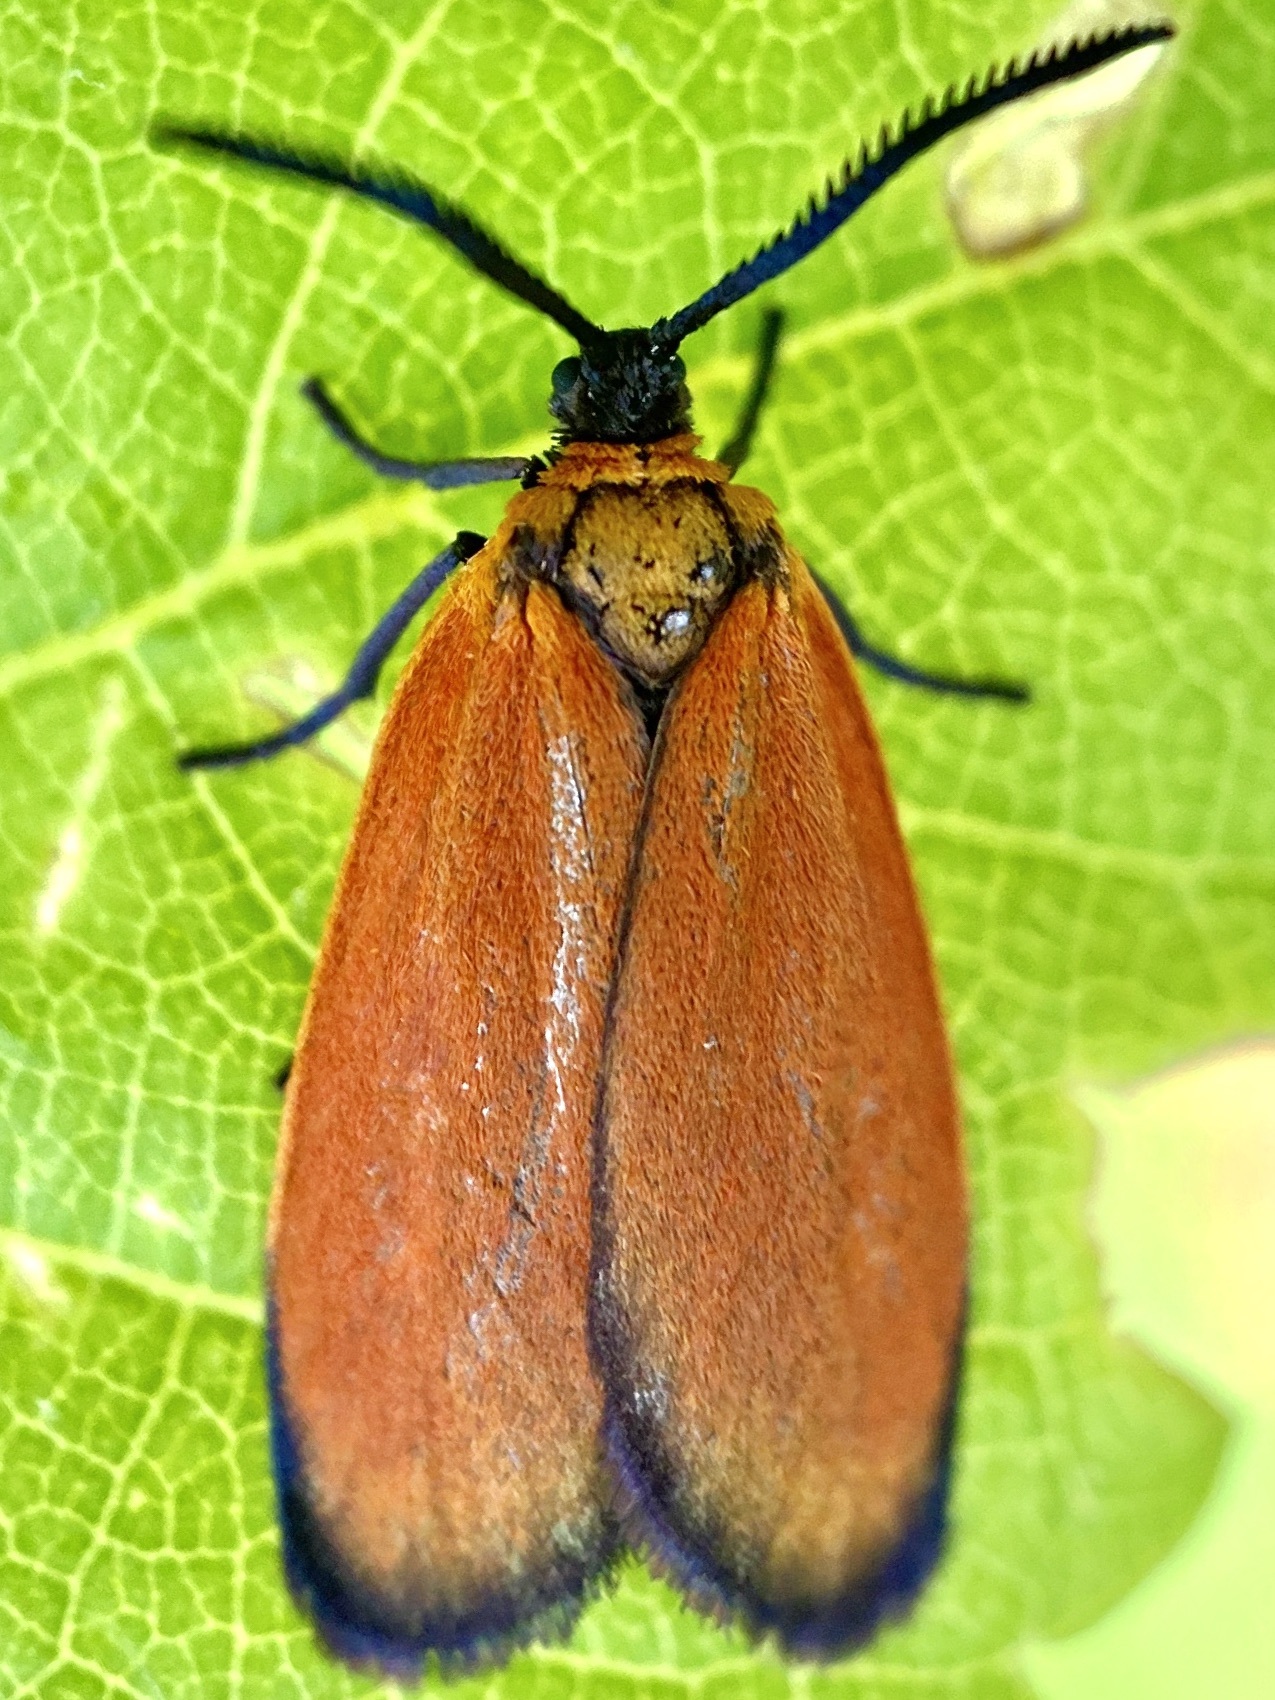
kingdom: Animalia
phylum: Arthropoda
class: Insecta
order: Lepidoptera
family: Zygaenidae
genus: Malthaca
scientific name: Malthaca Pyromorpha dyari
